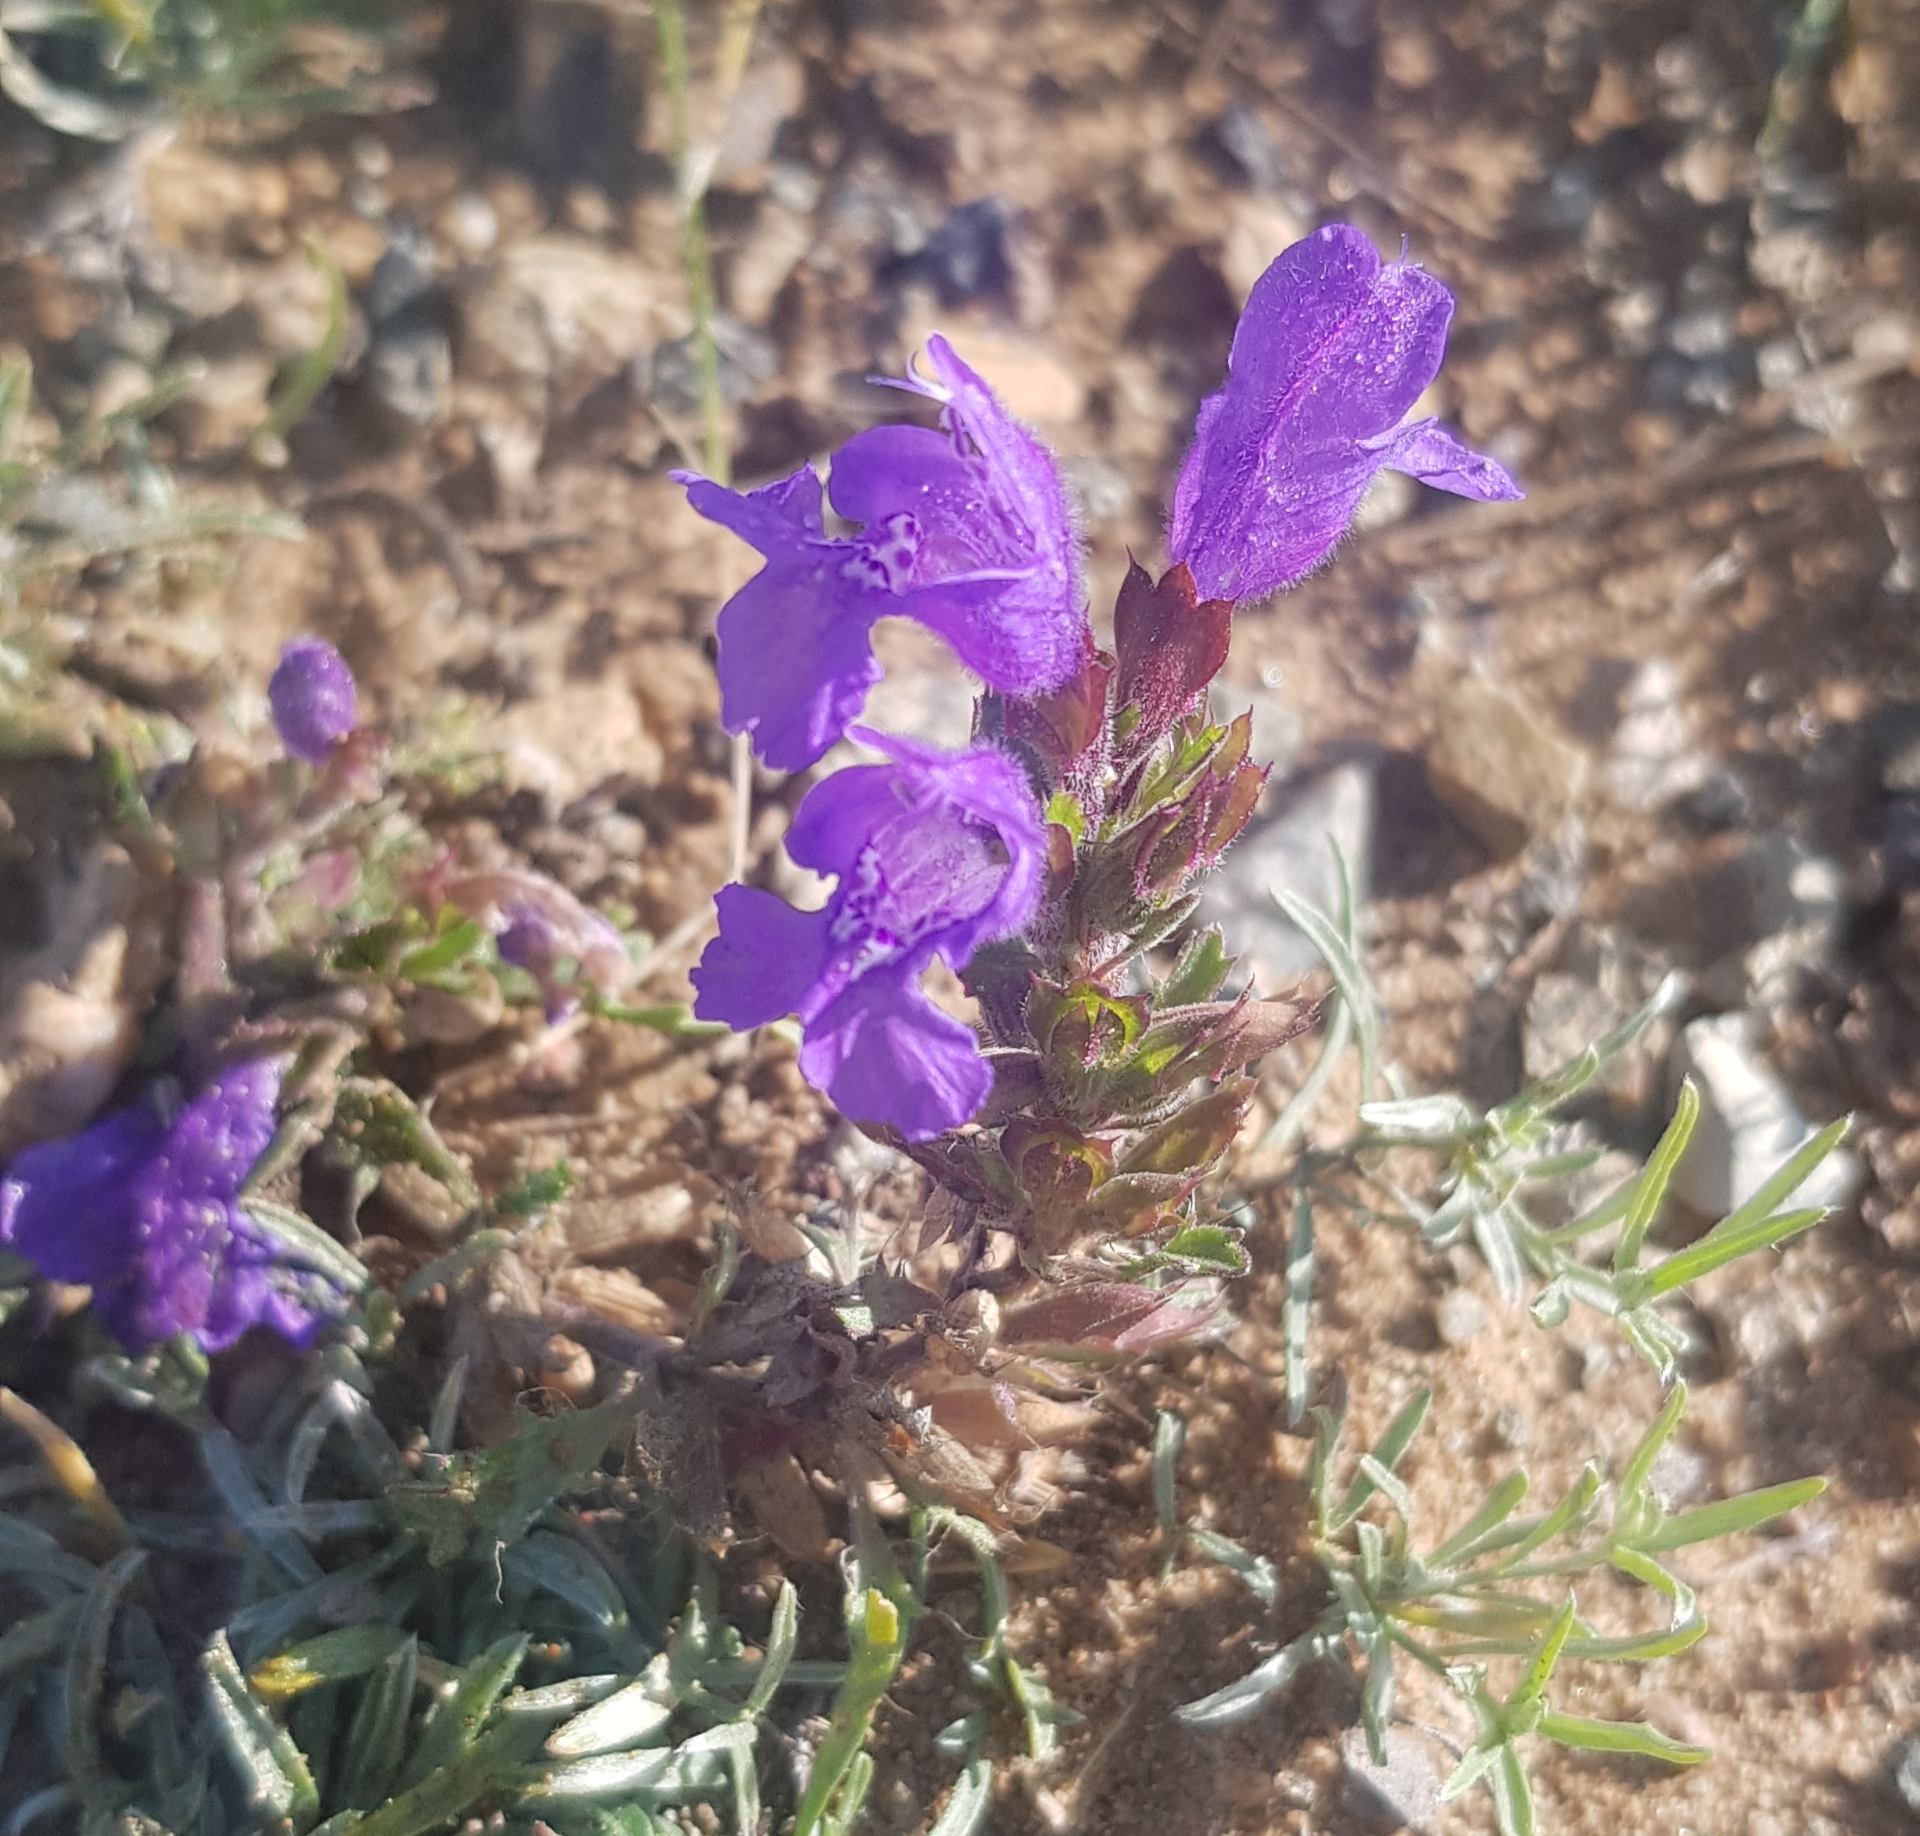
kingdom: Plantae
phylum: Tracheophyta
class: Magnoliopsida
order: Lamiales
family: Lamiaceae
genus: Dracocephalum
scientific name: Dracocephalum foetidum
